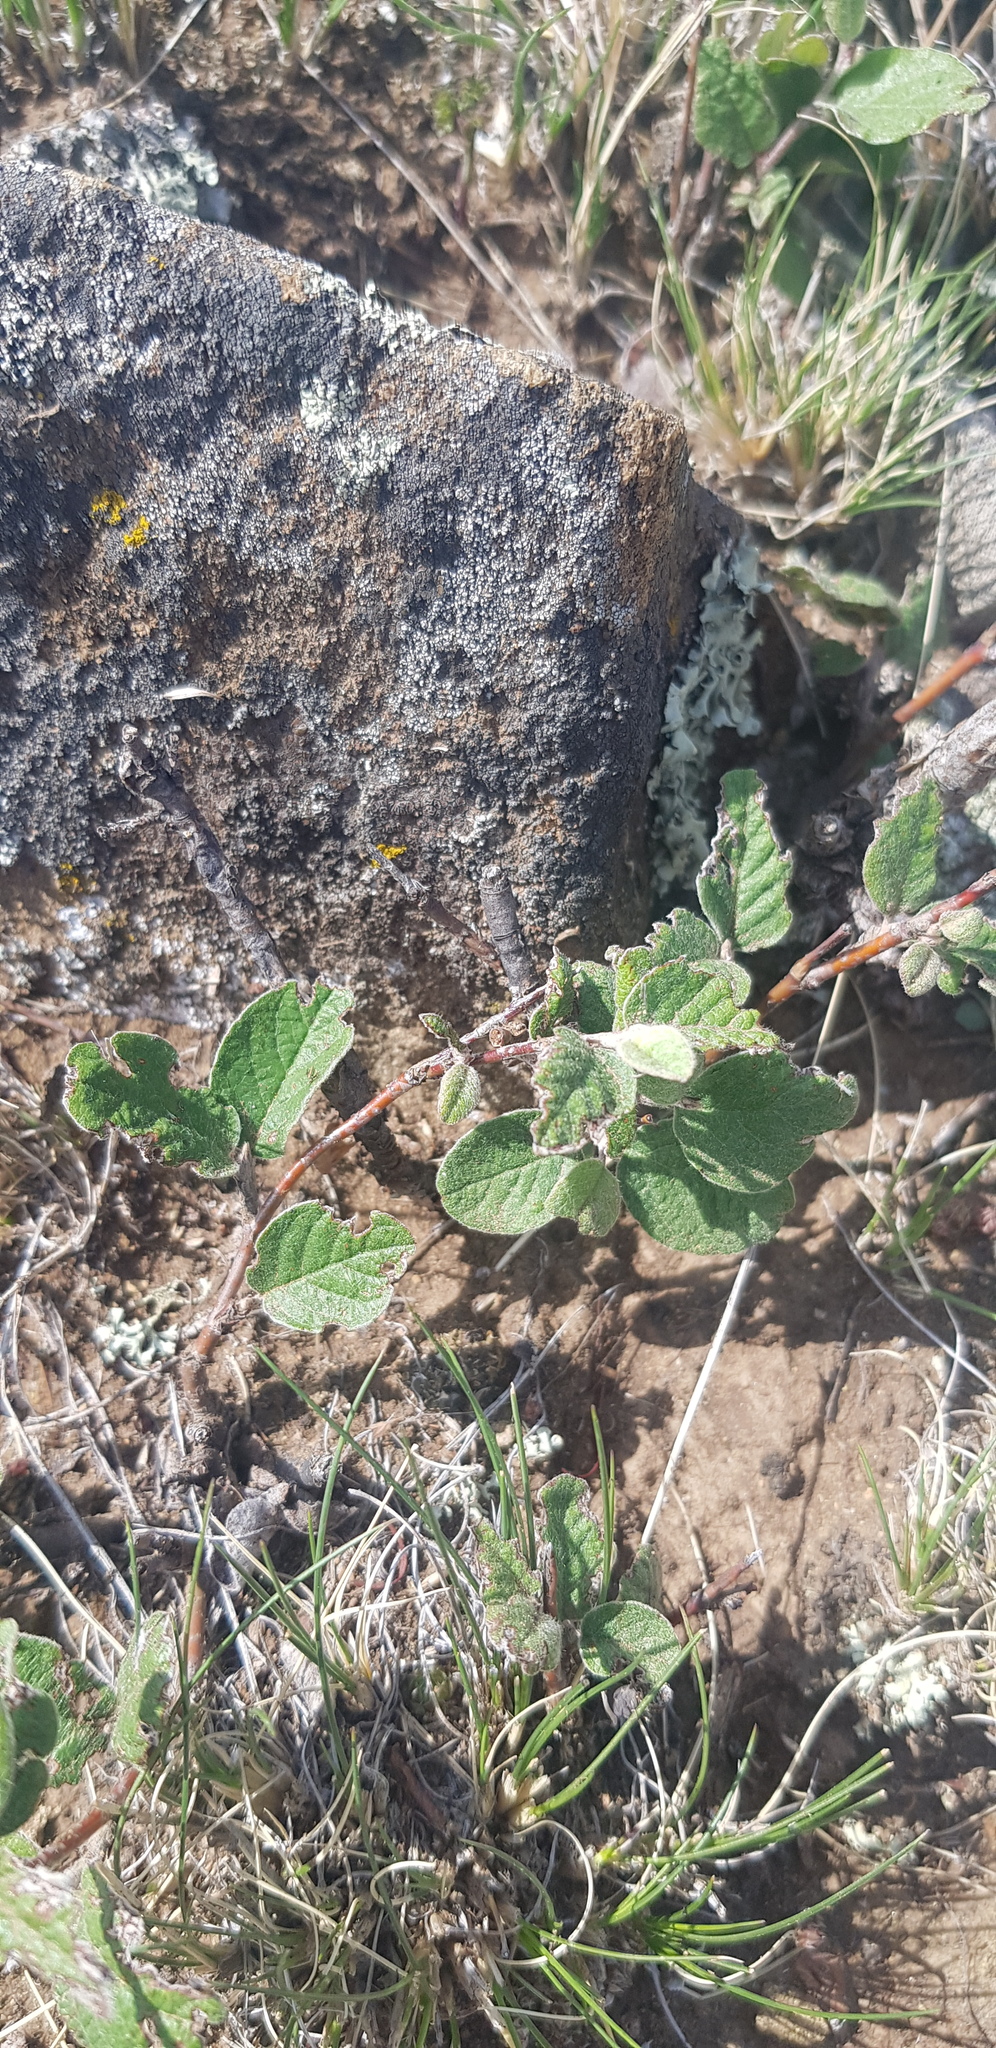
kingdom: Plantae
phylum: Tracheophyta
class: Magnoliopsida
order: Rosales
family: Rosaceae
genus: Cotoneaster
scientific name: Cotoneaster melanocarpus
